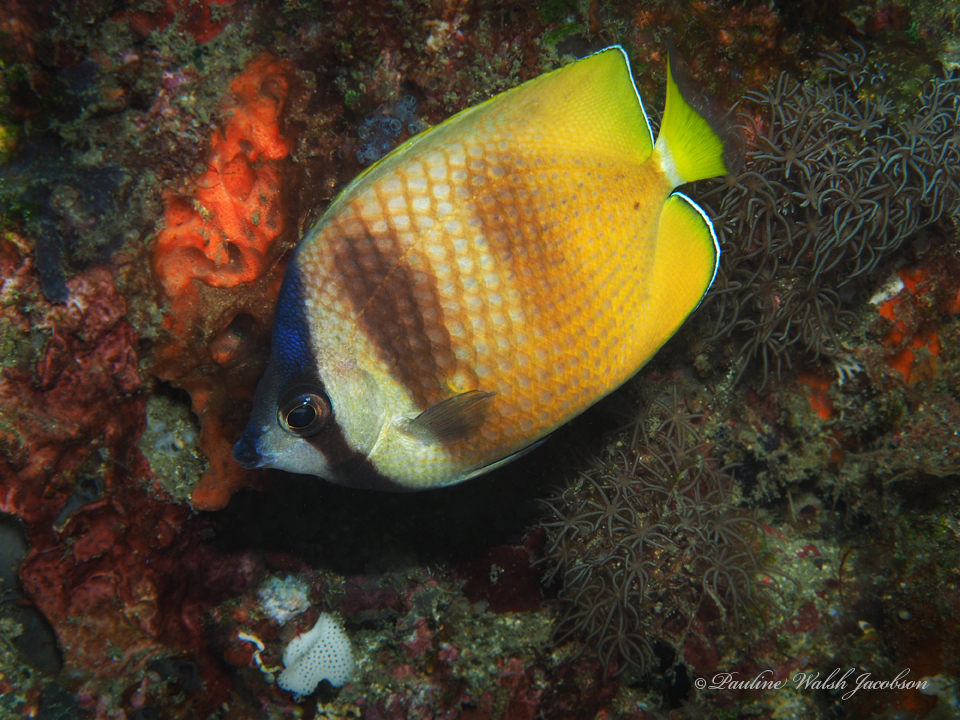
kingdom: Animalia
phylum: Chordata
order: Perciformes
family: Chaetodontidae
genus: Chaetodon
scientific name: Chaetodon kleinii
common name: Klein's butterflyfish
